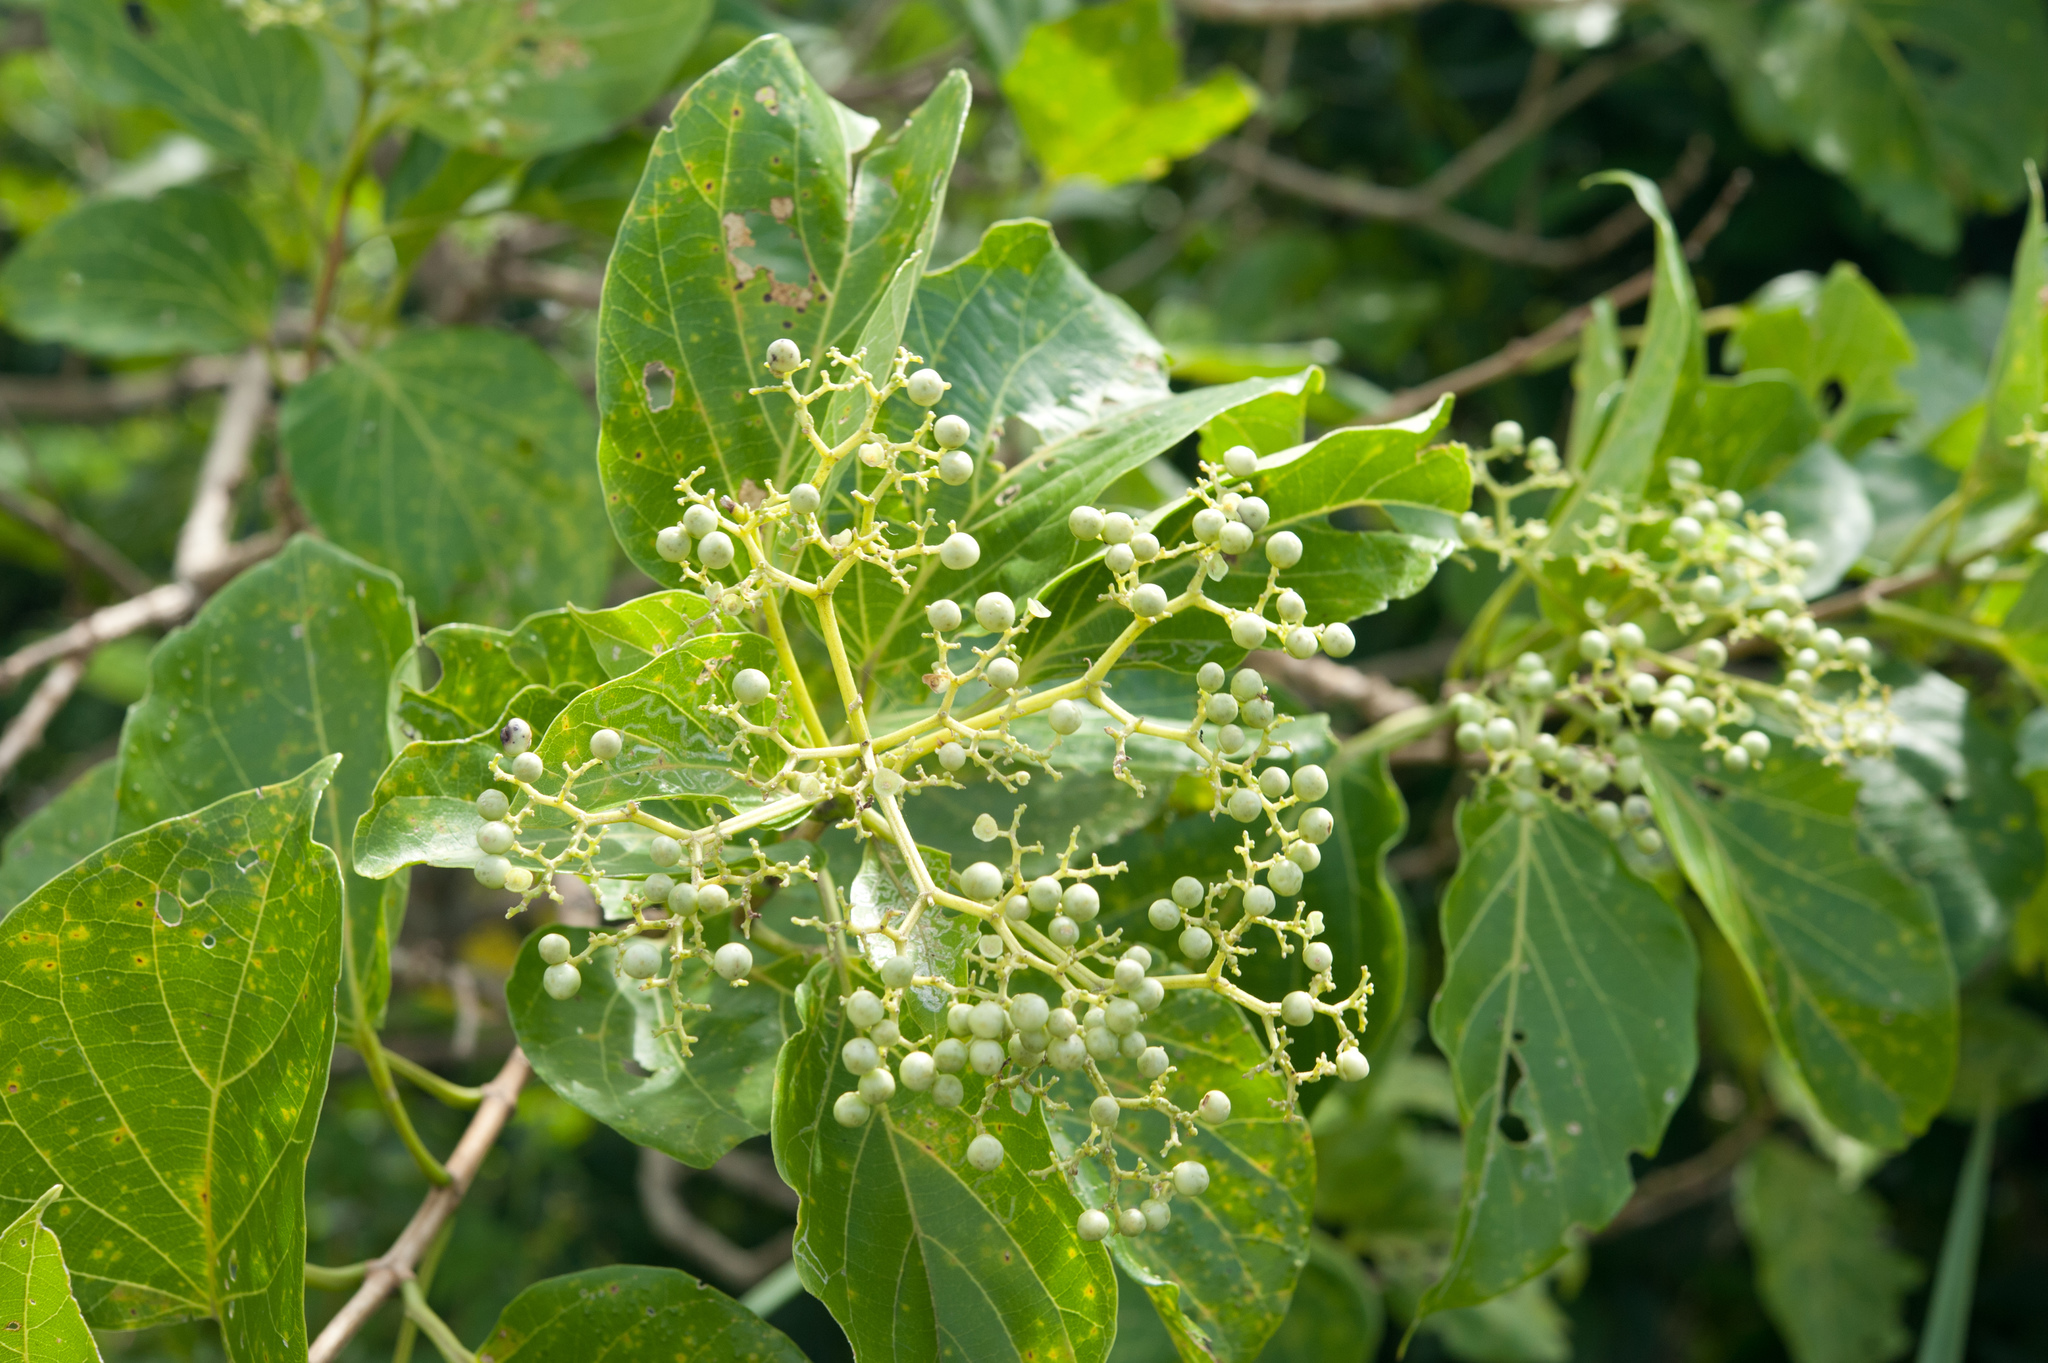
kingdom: Plantae
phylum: Tracheophyta
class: Magnoliopsida
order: Lamiales
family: Lamiaceae
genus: Premna
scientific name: Premna serratifolia
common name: Bastard guelder
